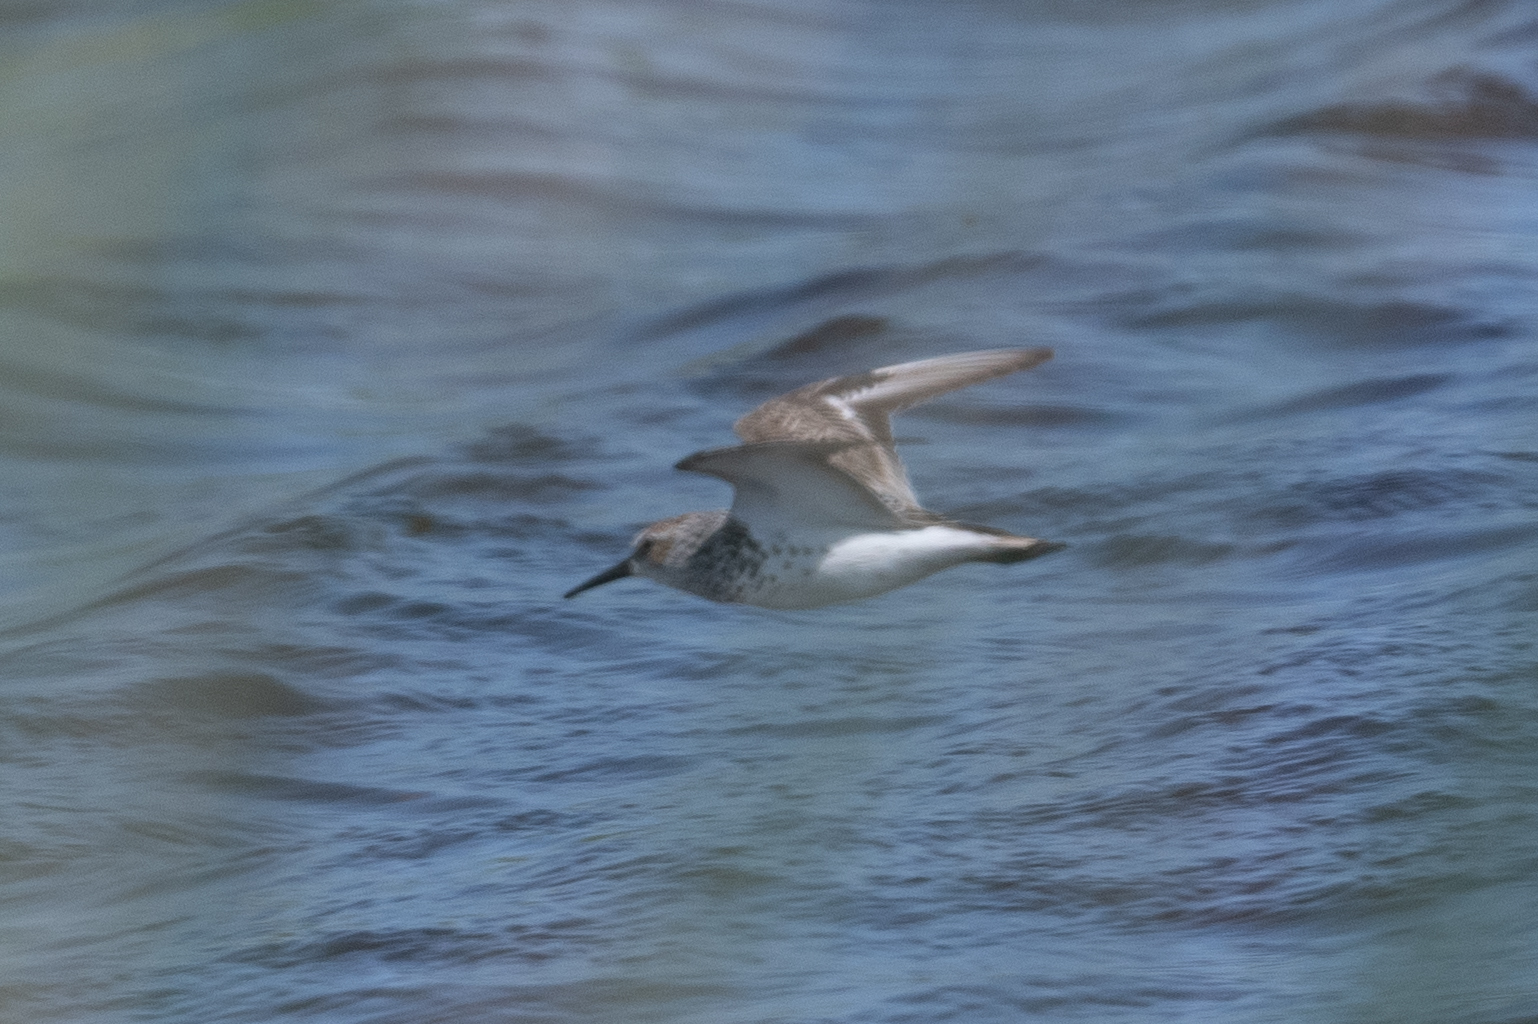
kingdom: Animalia
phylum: Chordata
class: Aves
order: Charadriiformes
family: Scolopacidae
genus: Calidris
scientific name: Calidris mauri
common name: Western sandpiper
